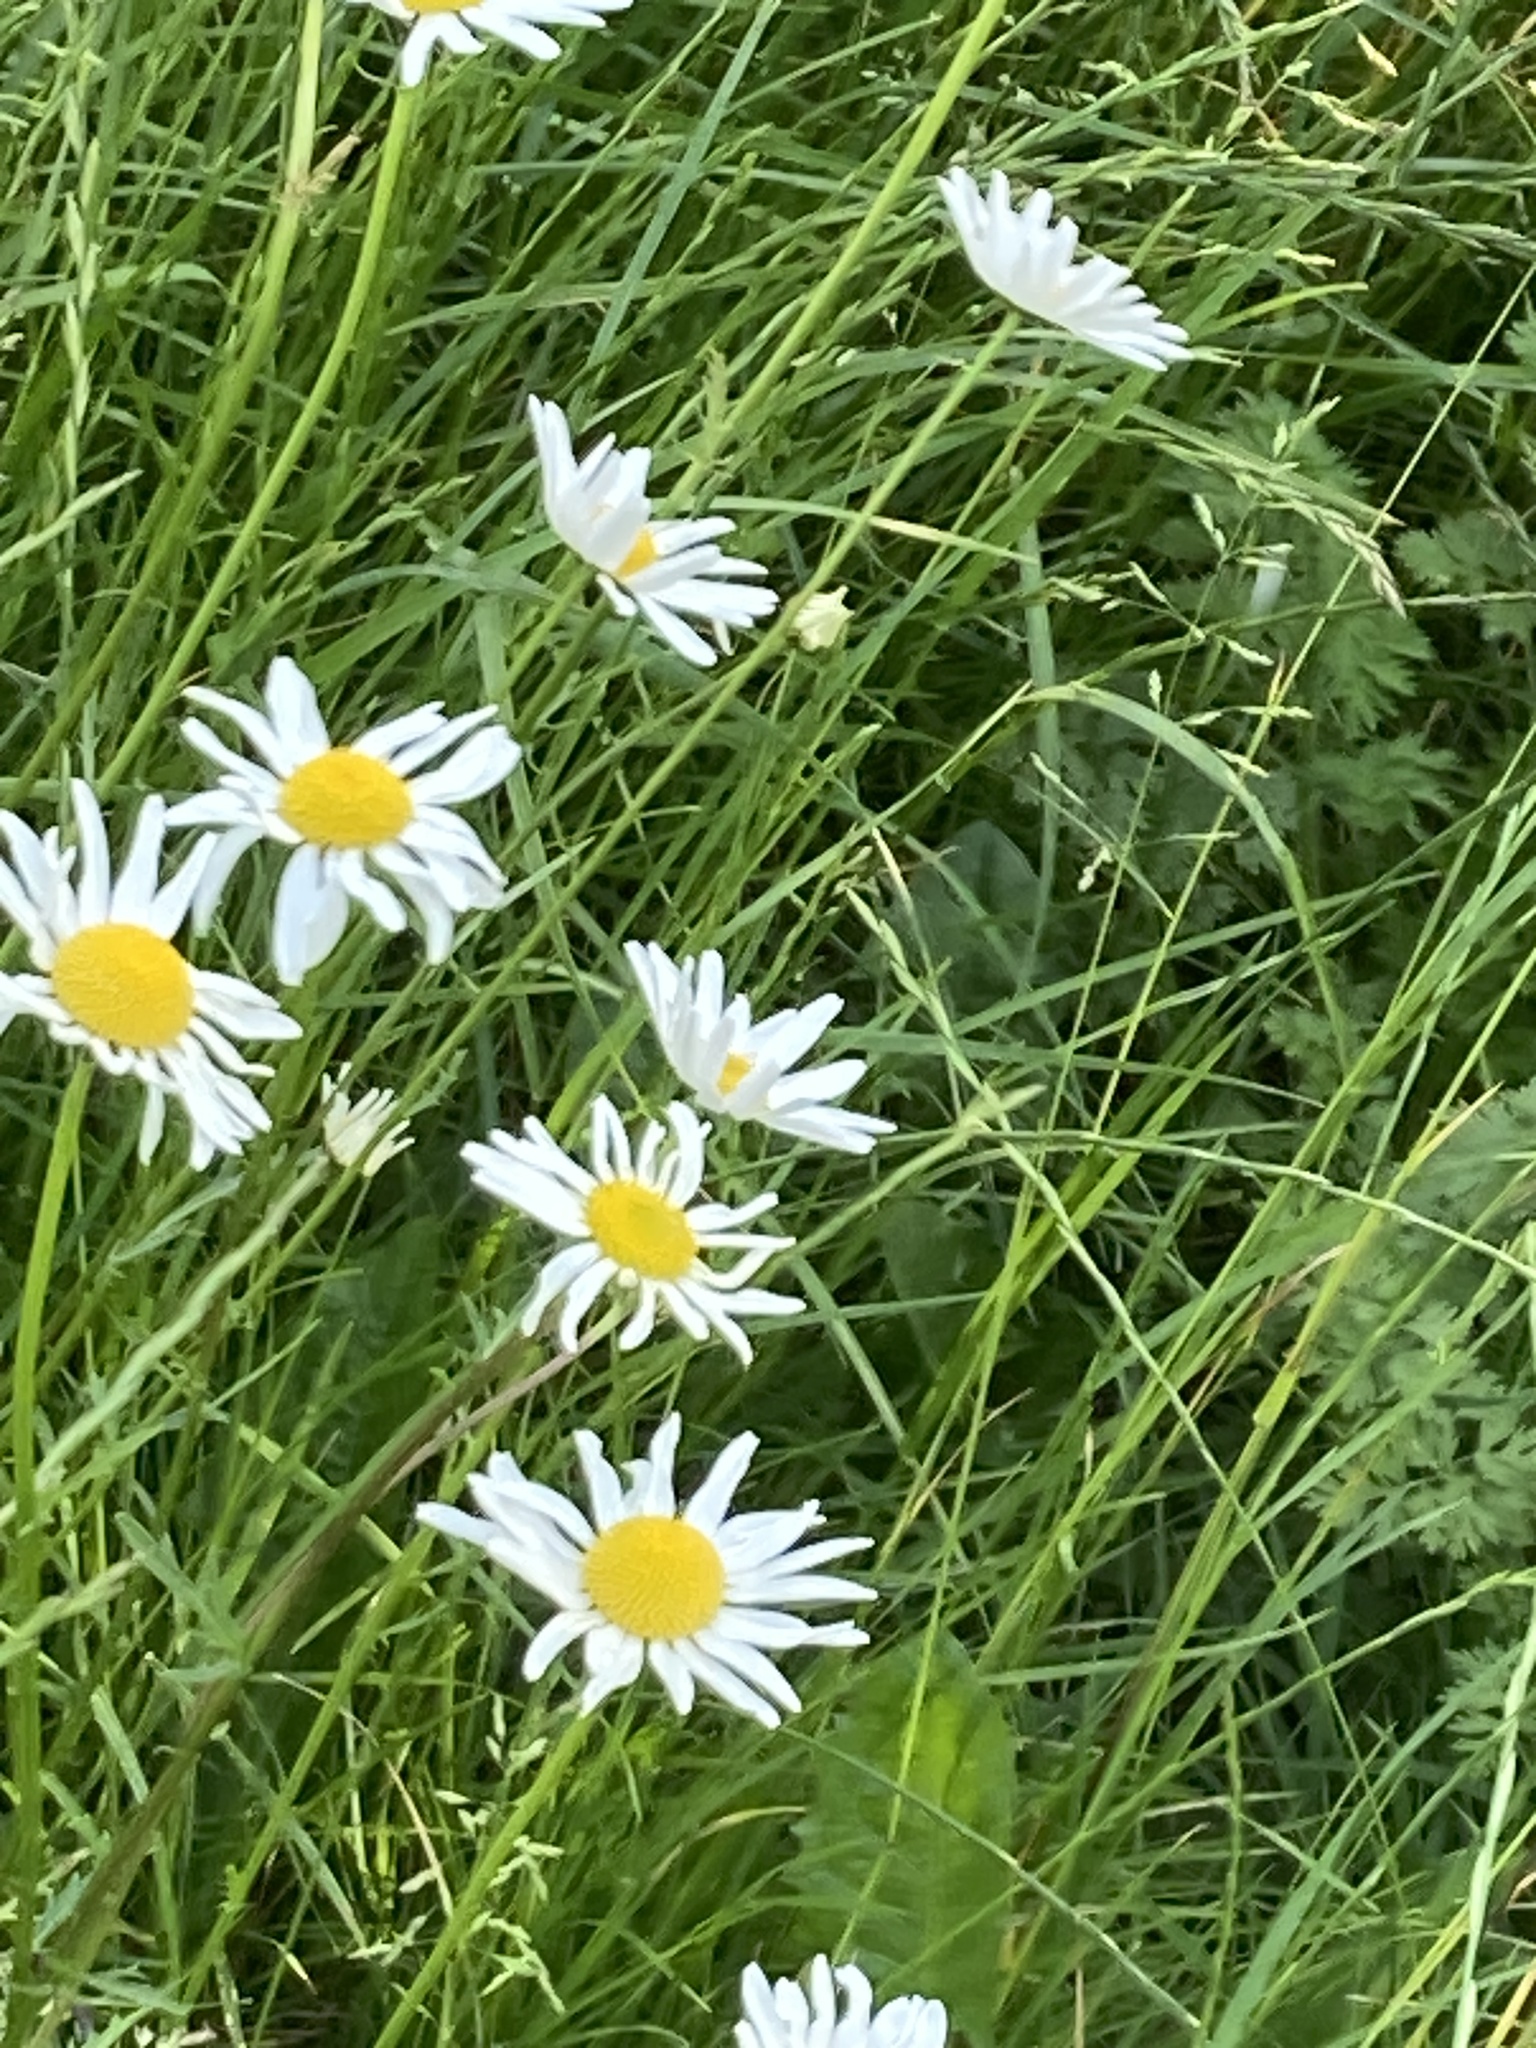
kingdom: Plantae
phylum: Tracheophyta
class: Magnoliopsida
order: Asterales
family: Asteraceae
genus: Leucanthemum
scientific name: Leucanthemum vulgare
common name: Oxeye daisy
